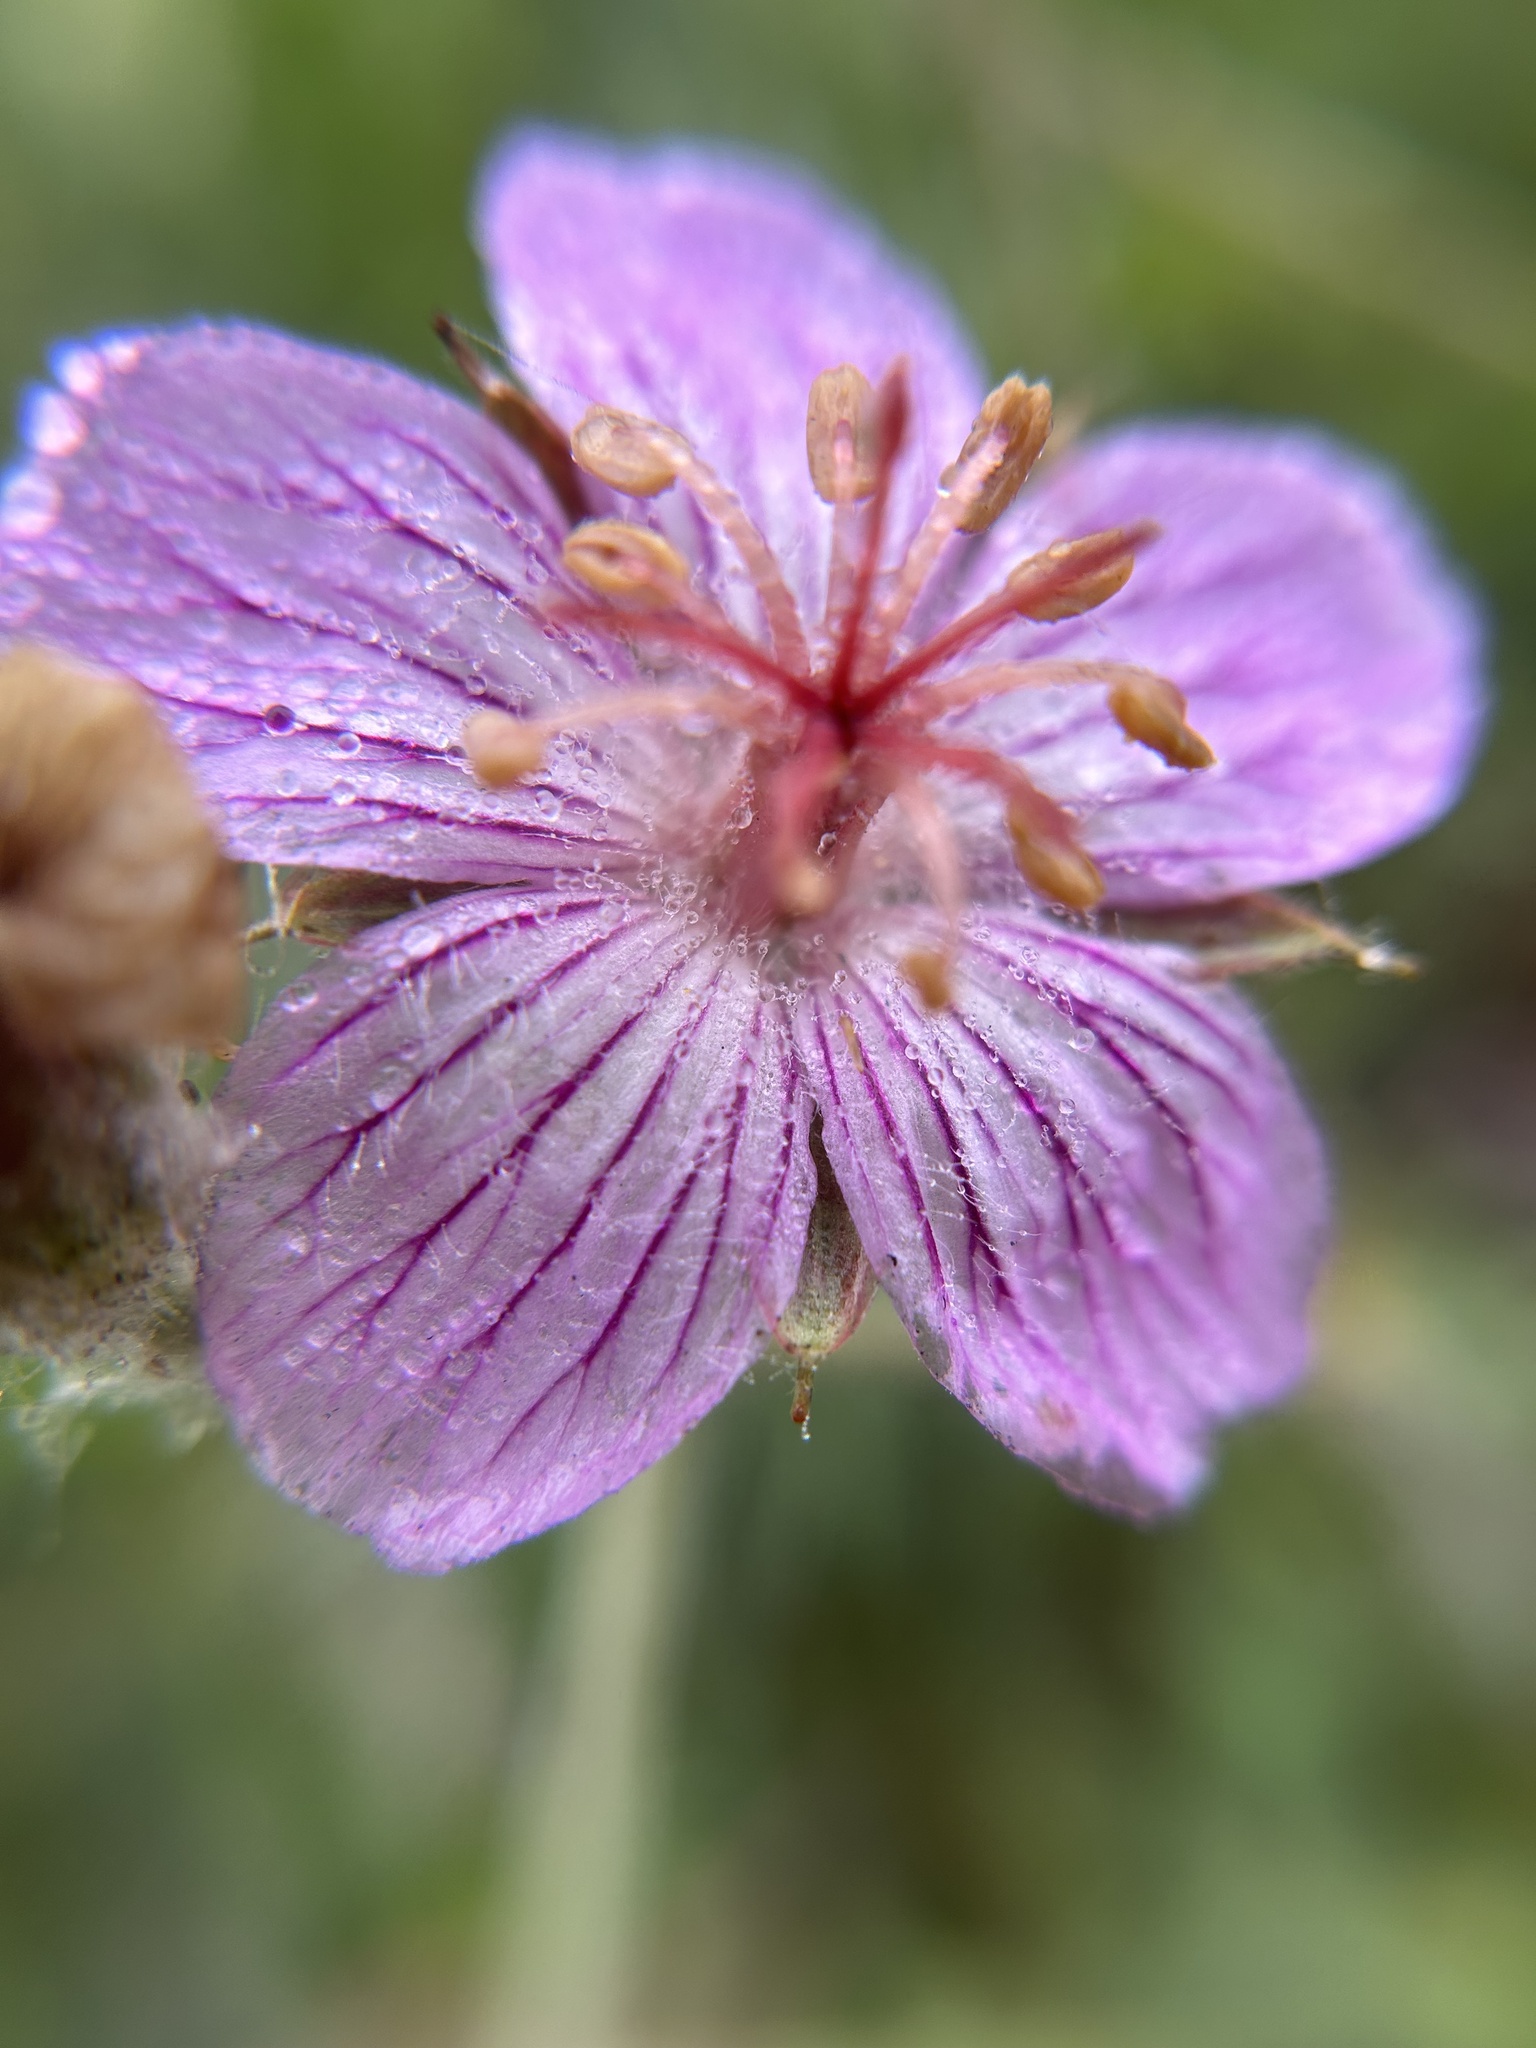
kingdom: Plantae
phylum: Tracheophyta
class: Magnoliopsida
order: Geraniales
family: Geraniaceae
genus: Geranium
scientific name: Geranium californicum
